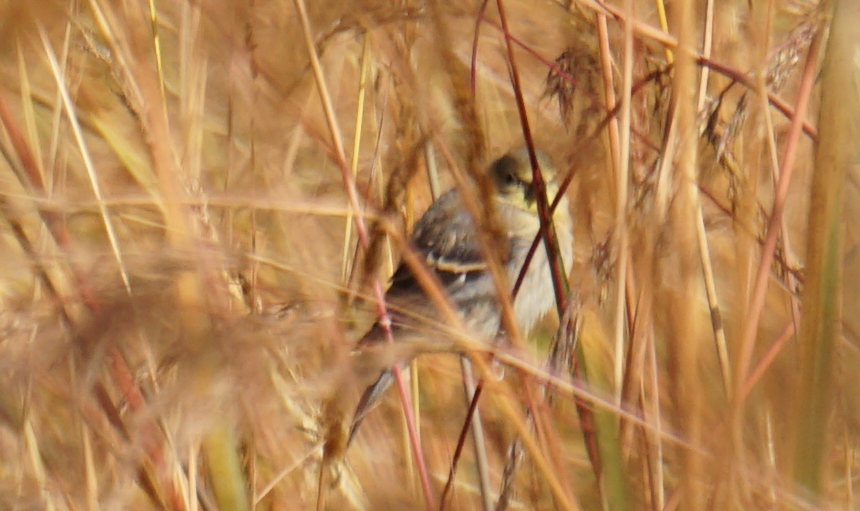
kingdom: Animalia
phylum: Chordata
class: Aves
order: Passeriformes
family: Fringillidae
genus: Spinus
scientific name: Spinus tristis
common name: American goldfinch
